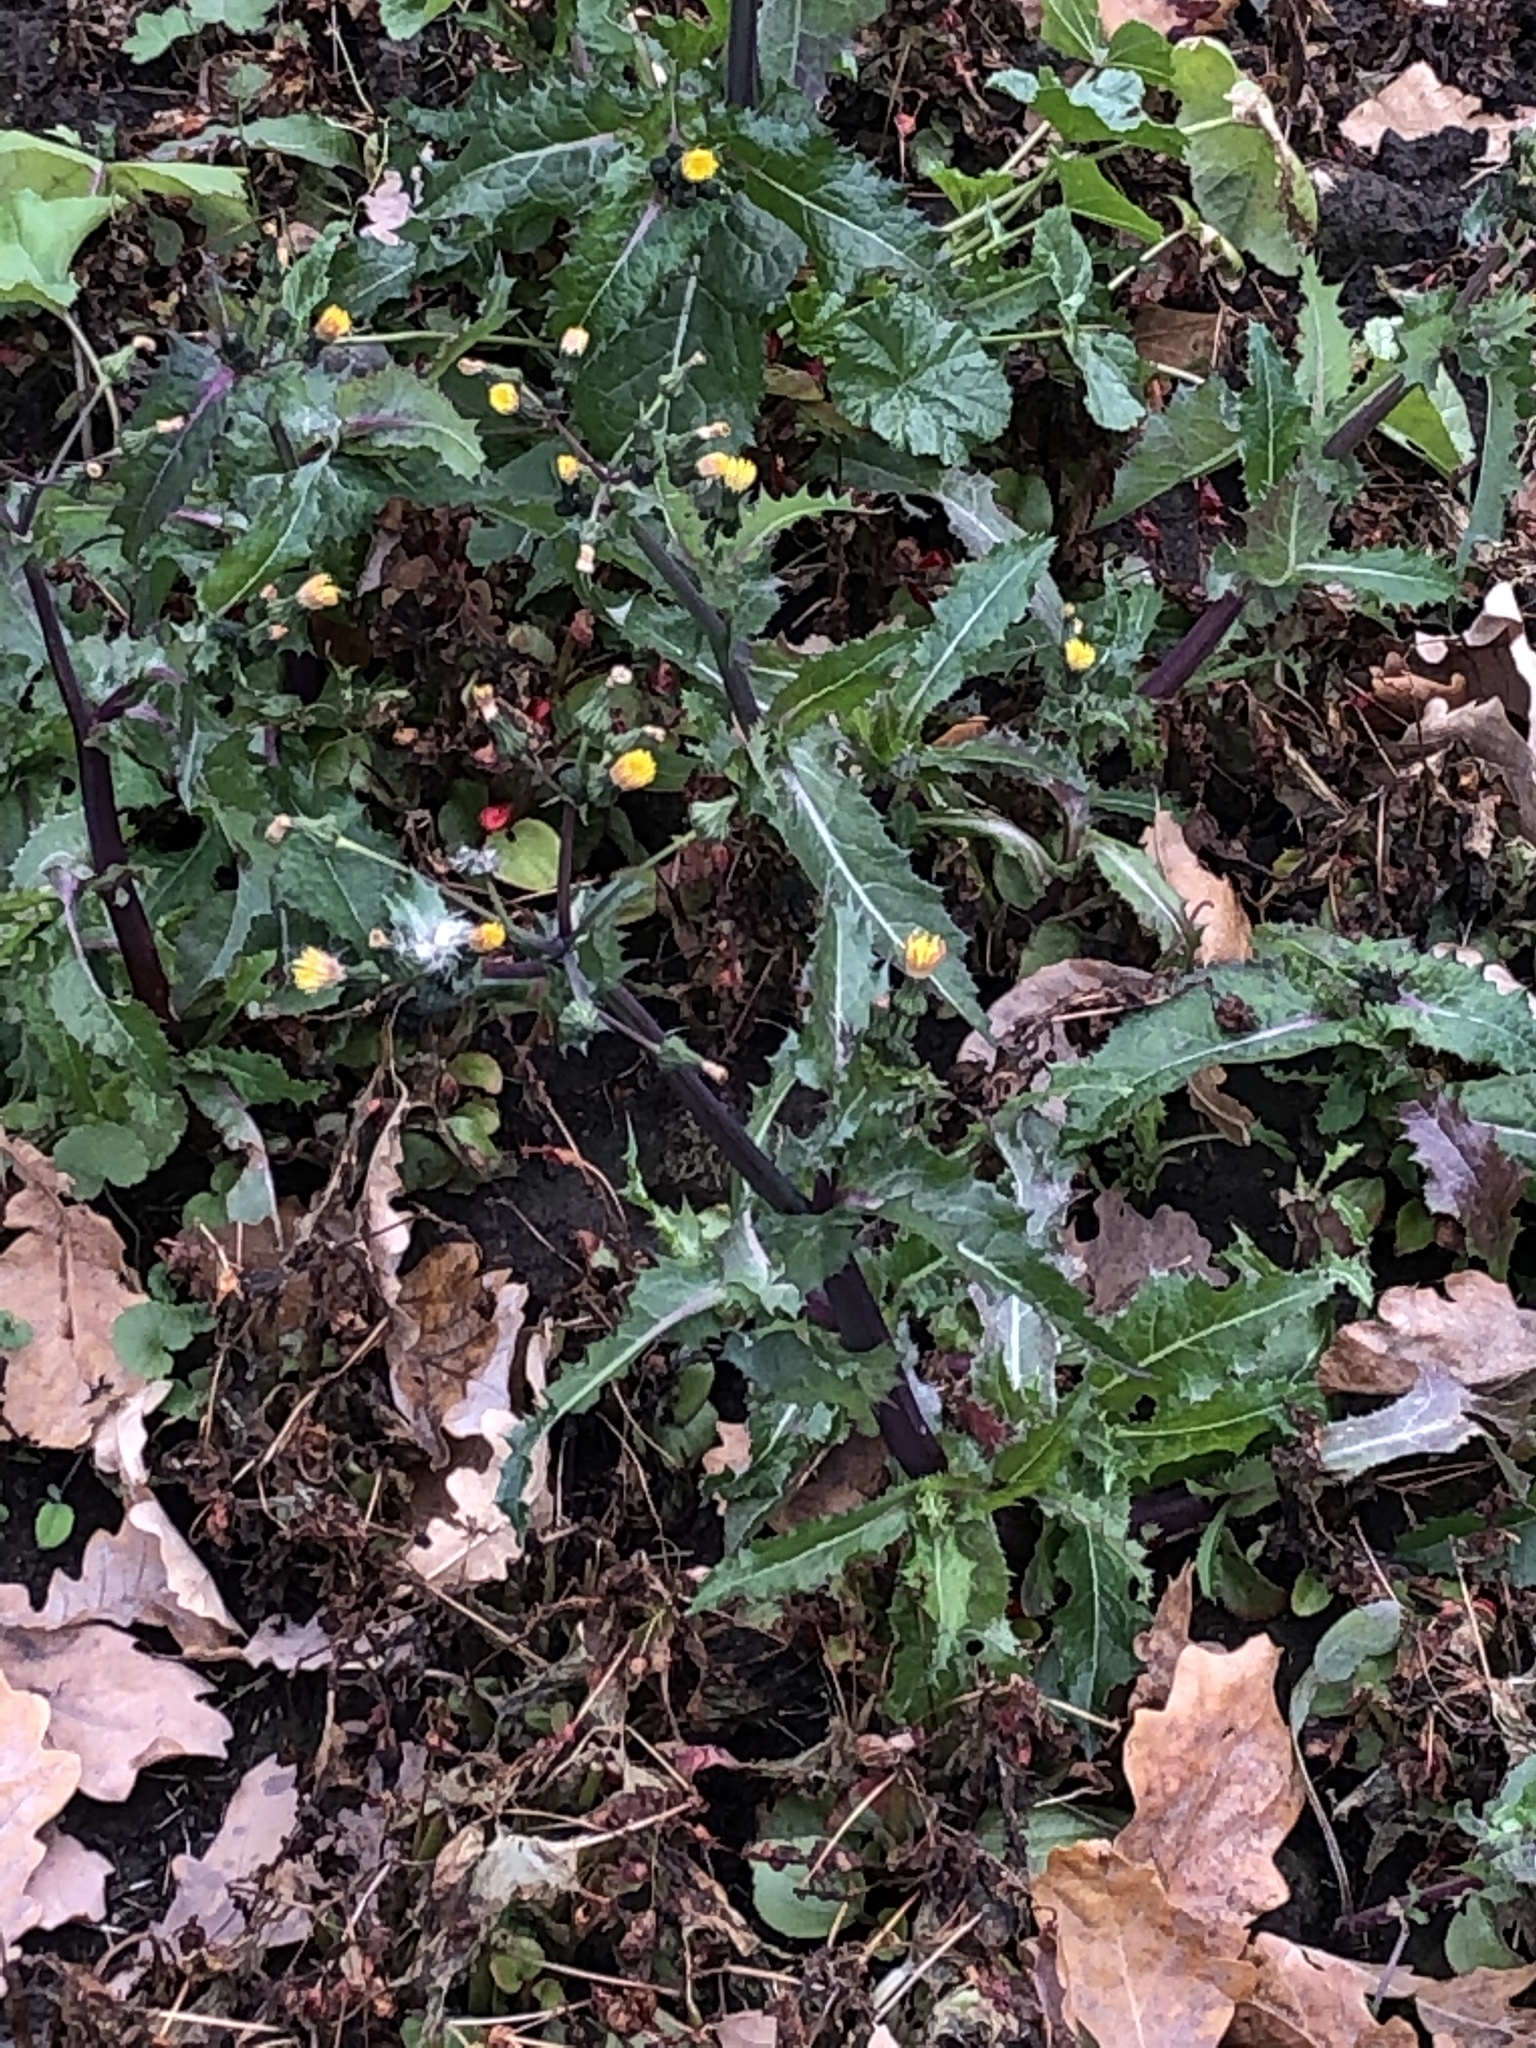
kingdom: Plantae
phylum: Tracheophyta
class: Magnoliopsida
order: Asterales
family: Asteraceae
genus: Sonchus
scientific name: Sonchus asper
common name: Prickly sow-thistle
